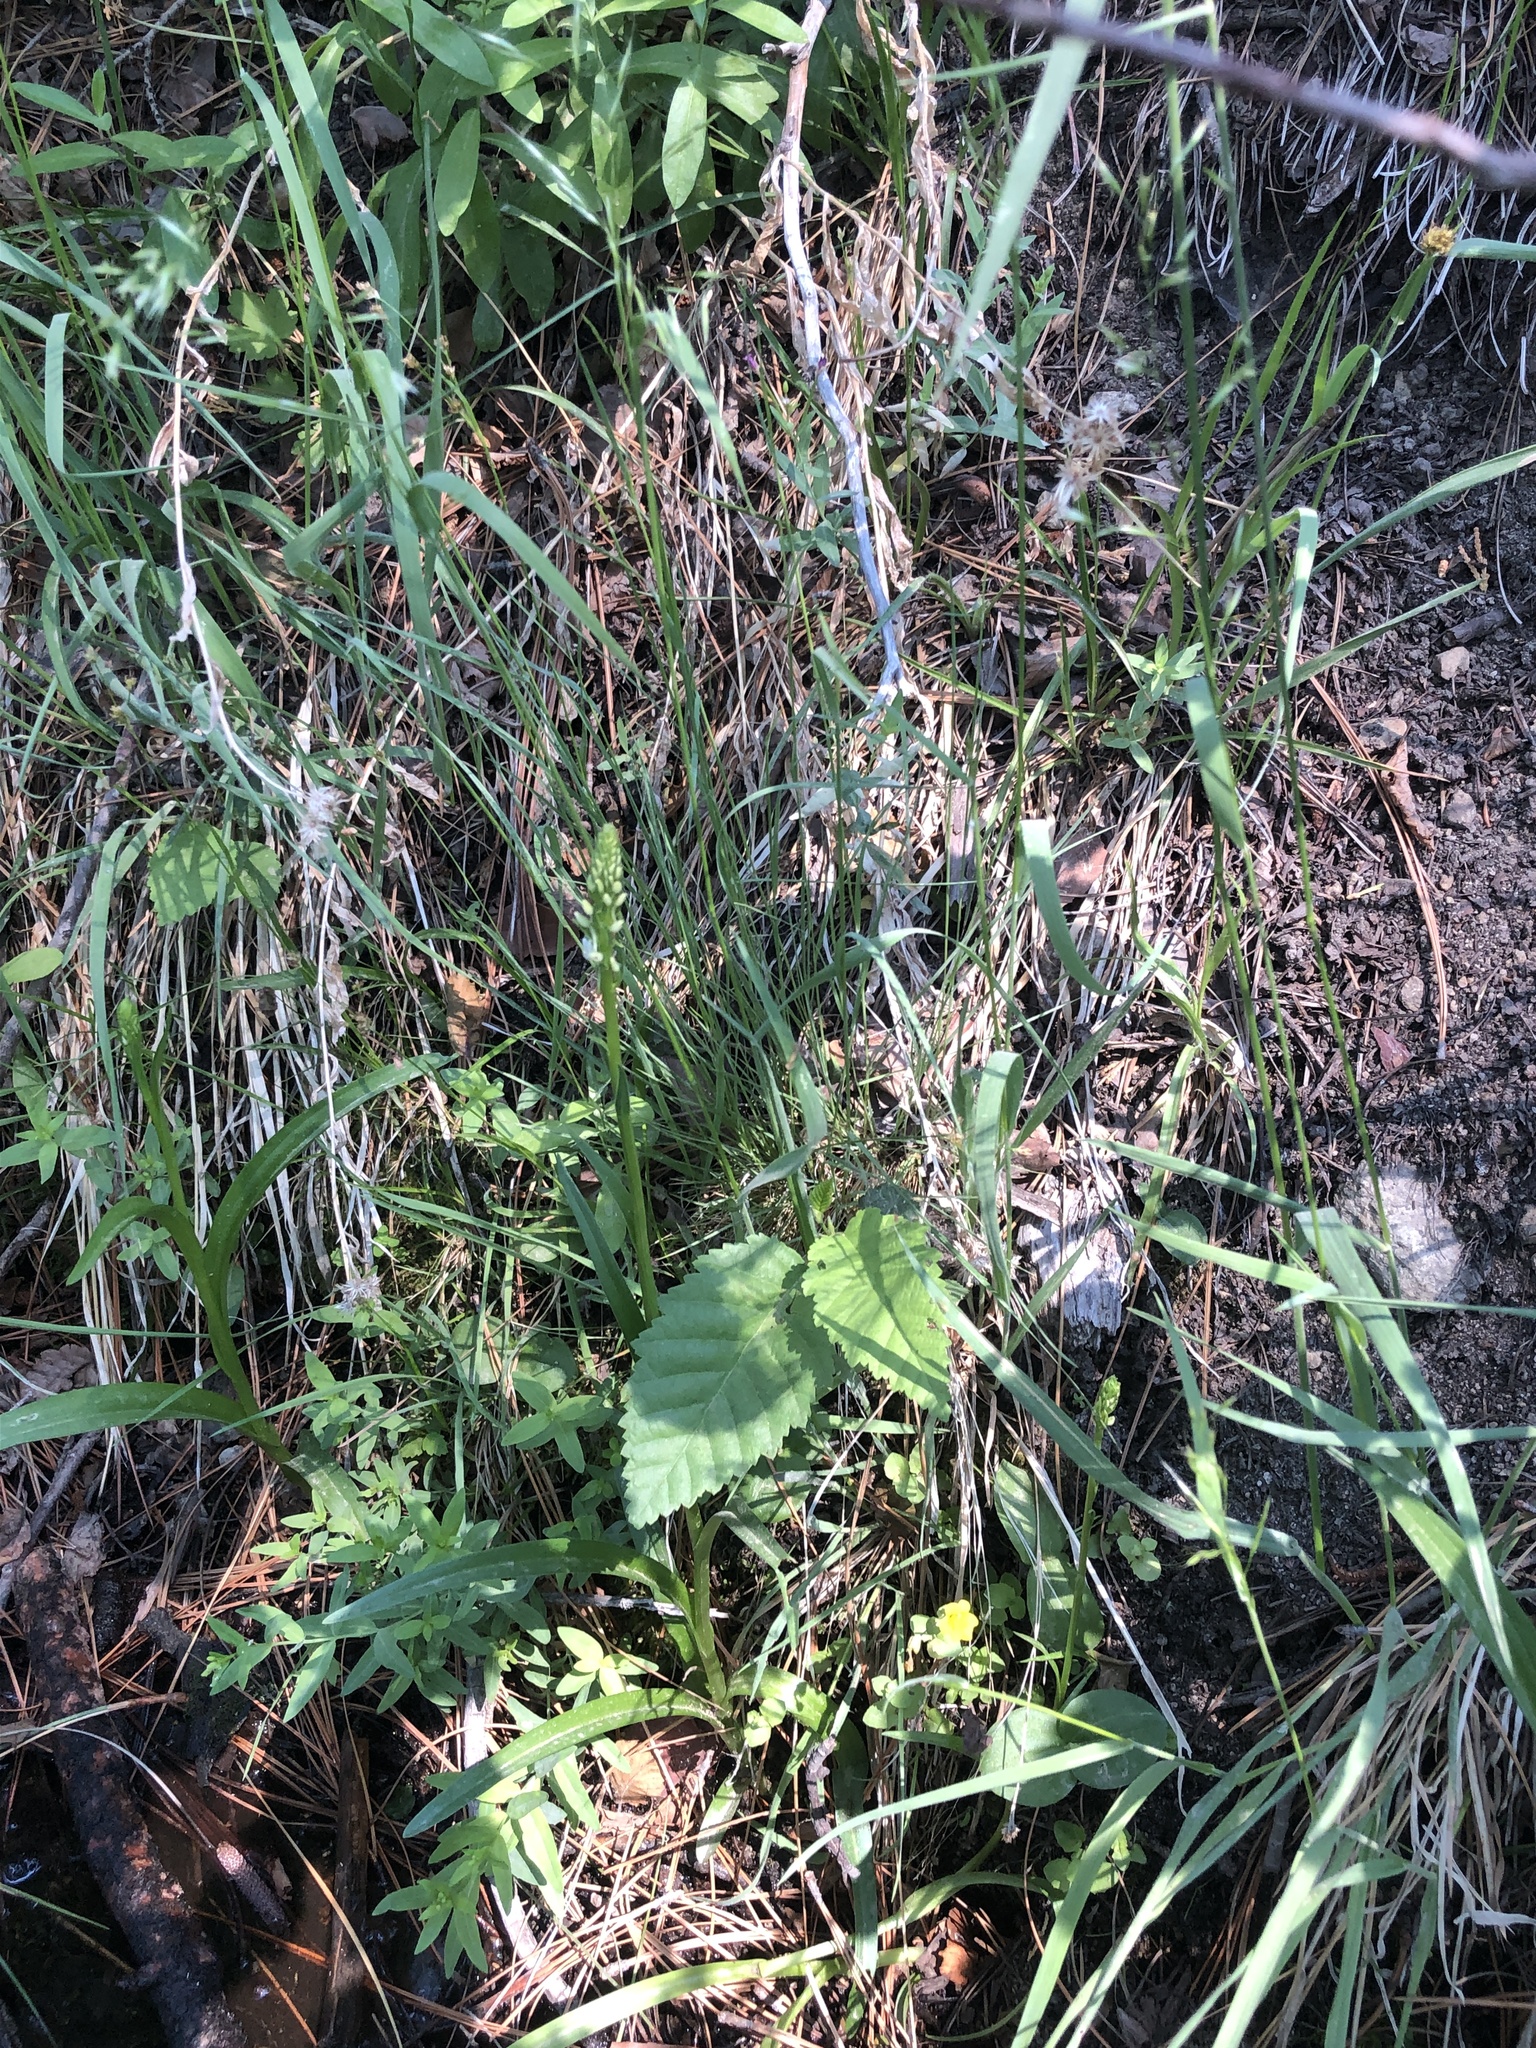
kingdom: Plantae
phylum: Tracheophyta
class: Liliopsida
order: Asparagales
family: Orchidaceae
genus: Platanthera
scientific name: Platanthera dilatata
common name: Bog candles
